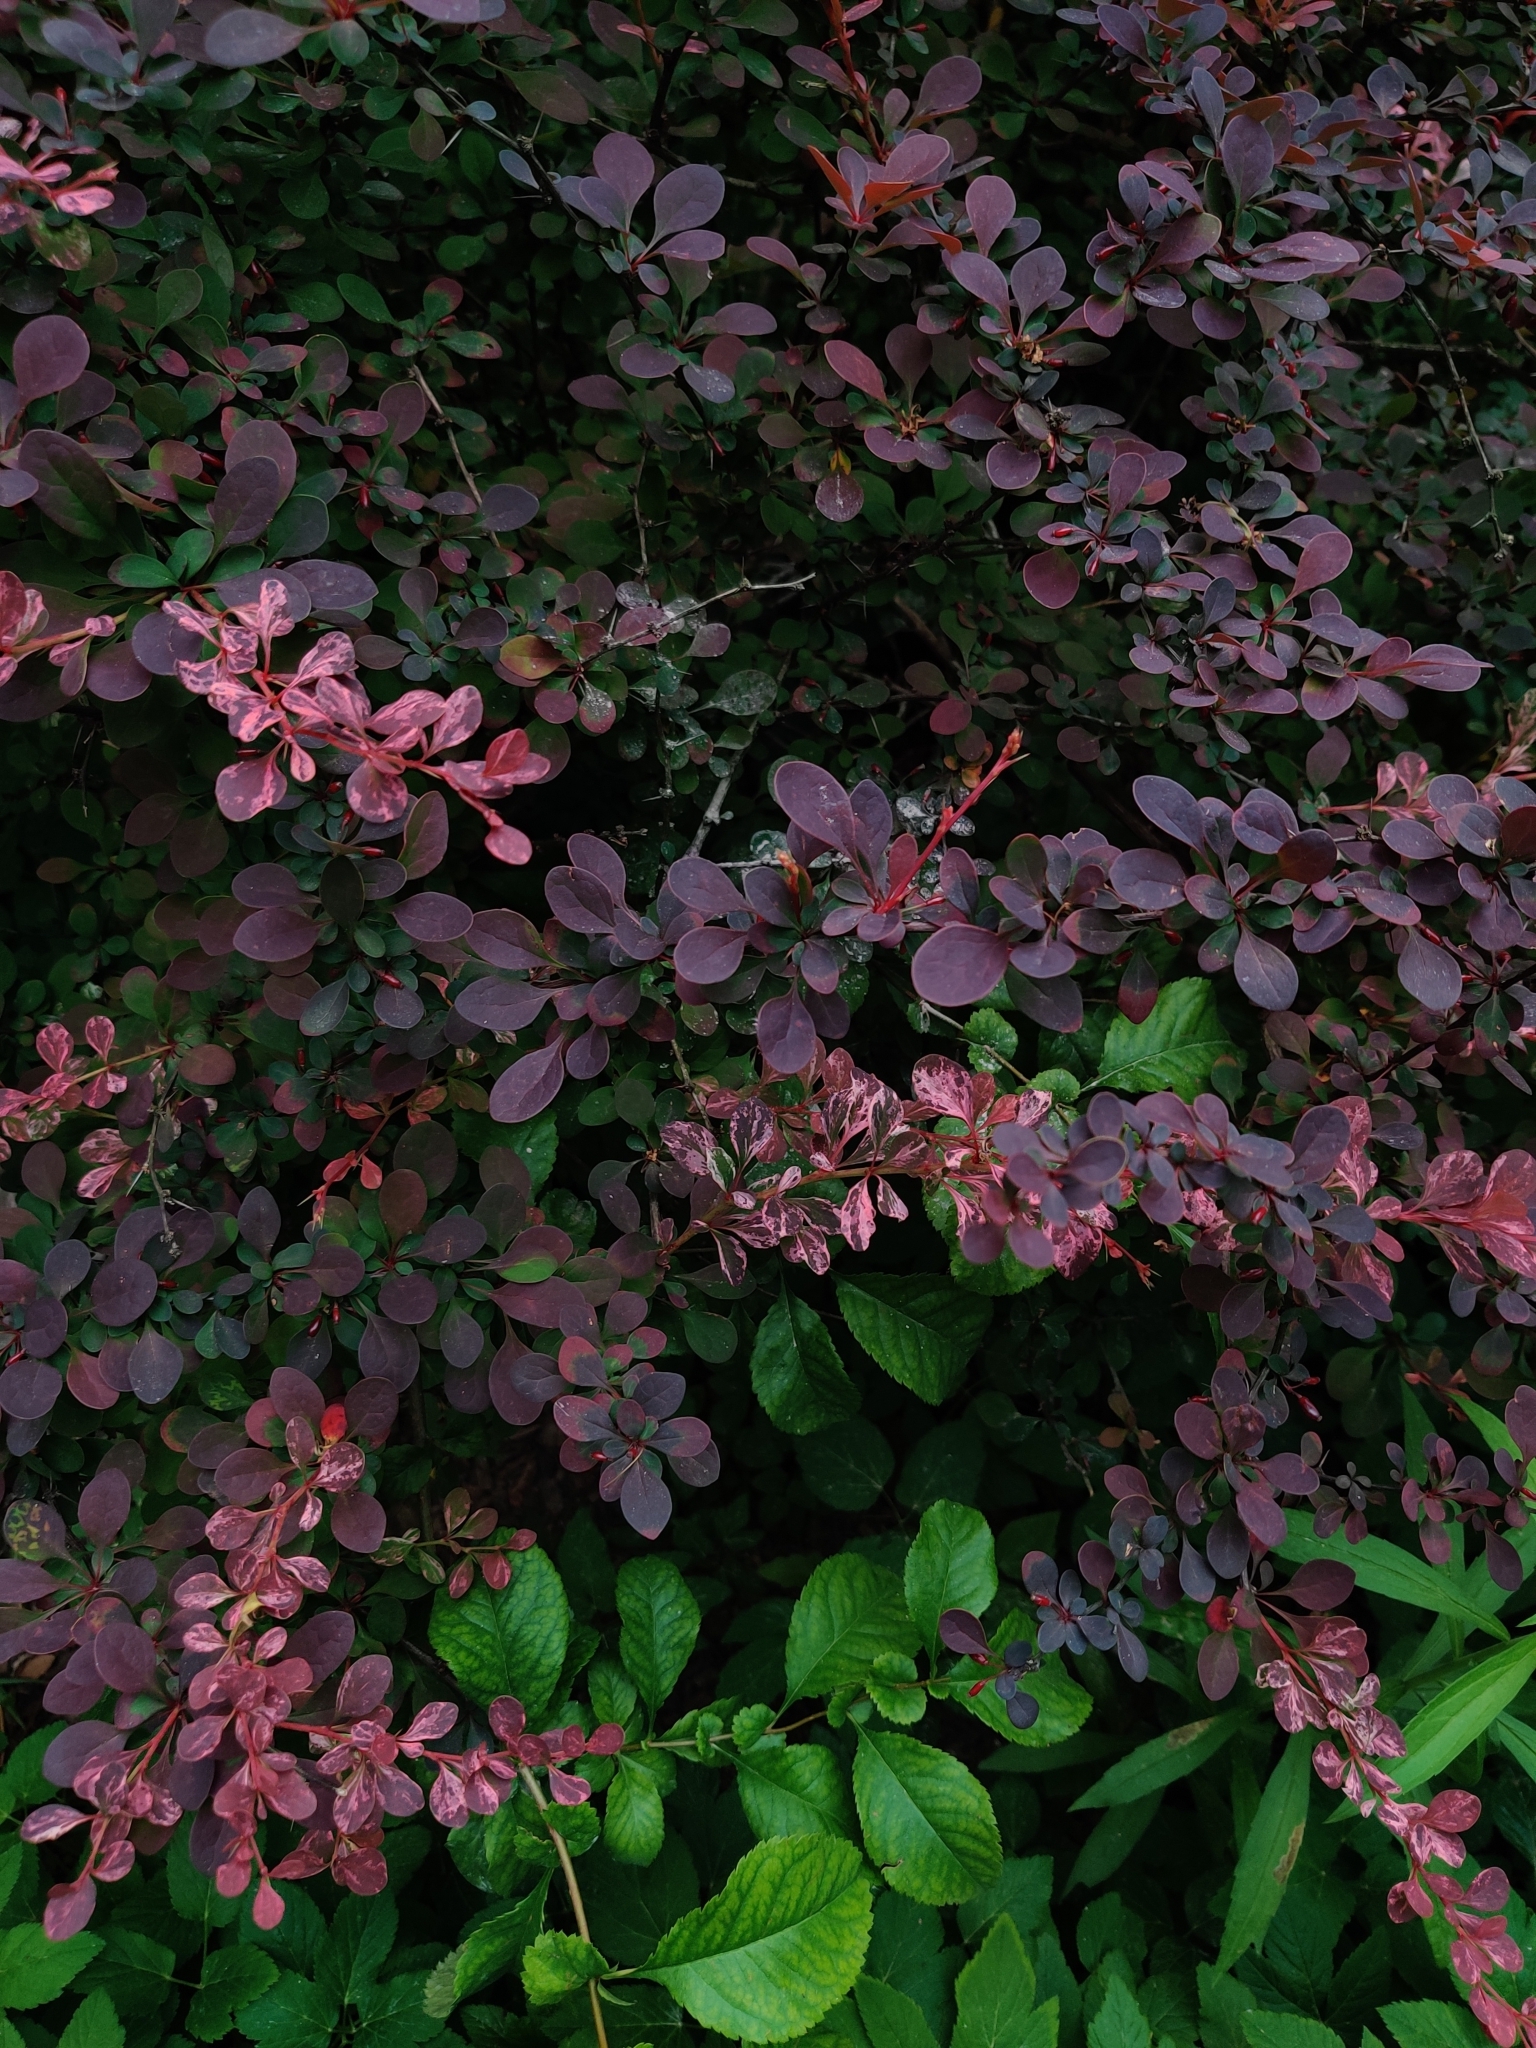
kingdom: Plantae
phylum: Tracheophyta
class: Magnoliopsida
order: Ranunculales
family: Berberidaceae
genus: Berberis
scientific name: Berberis thunbergii
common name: Japanese barberry
